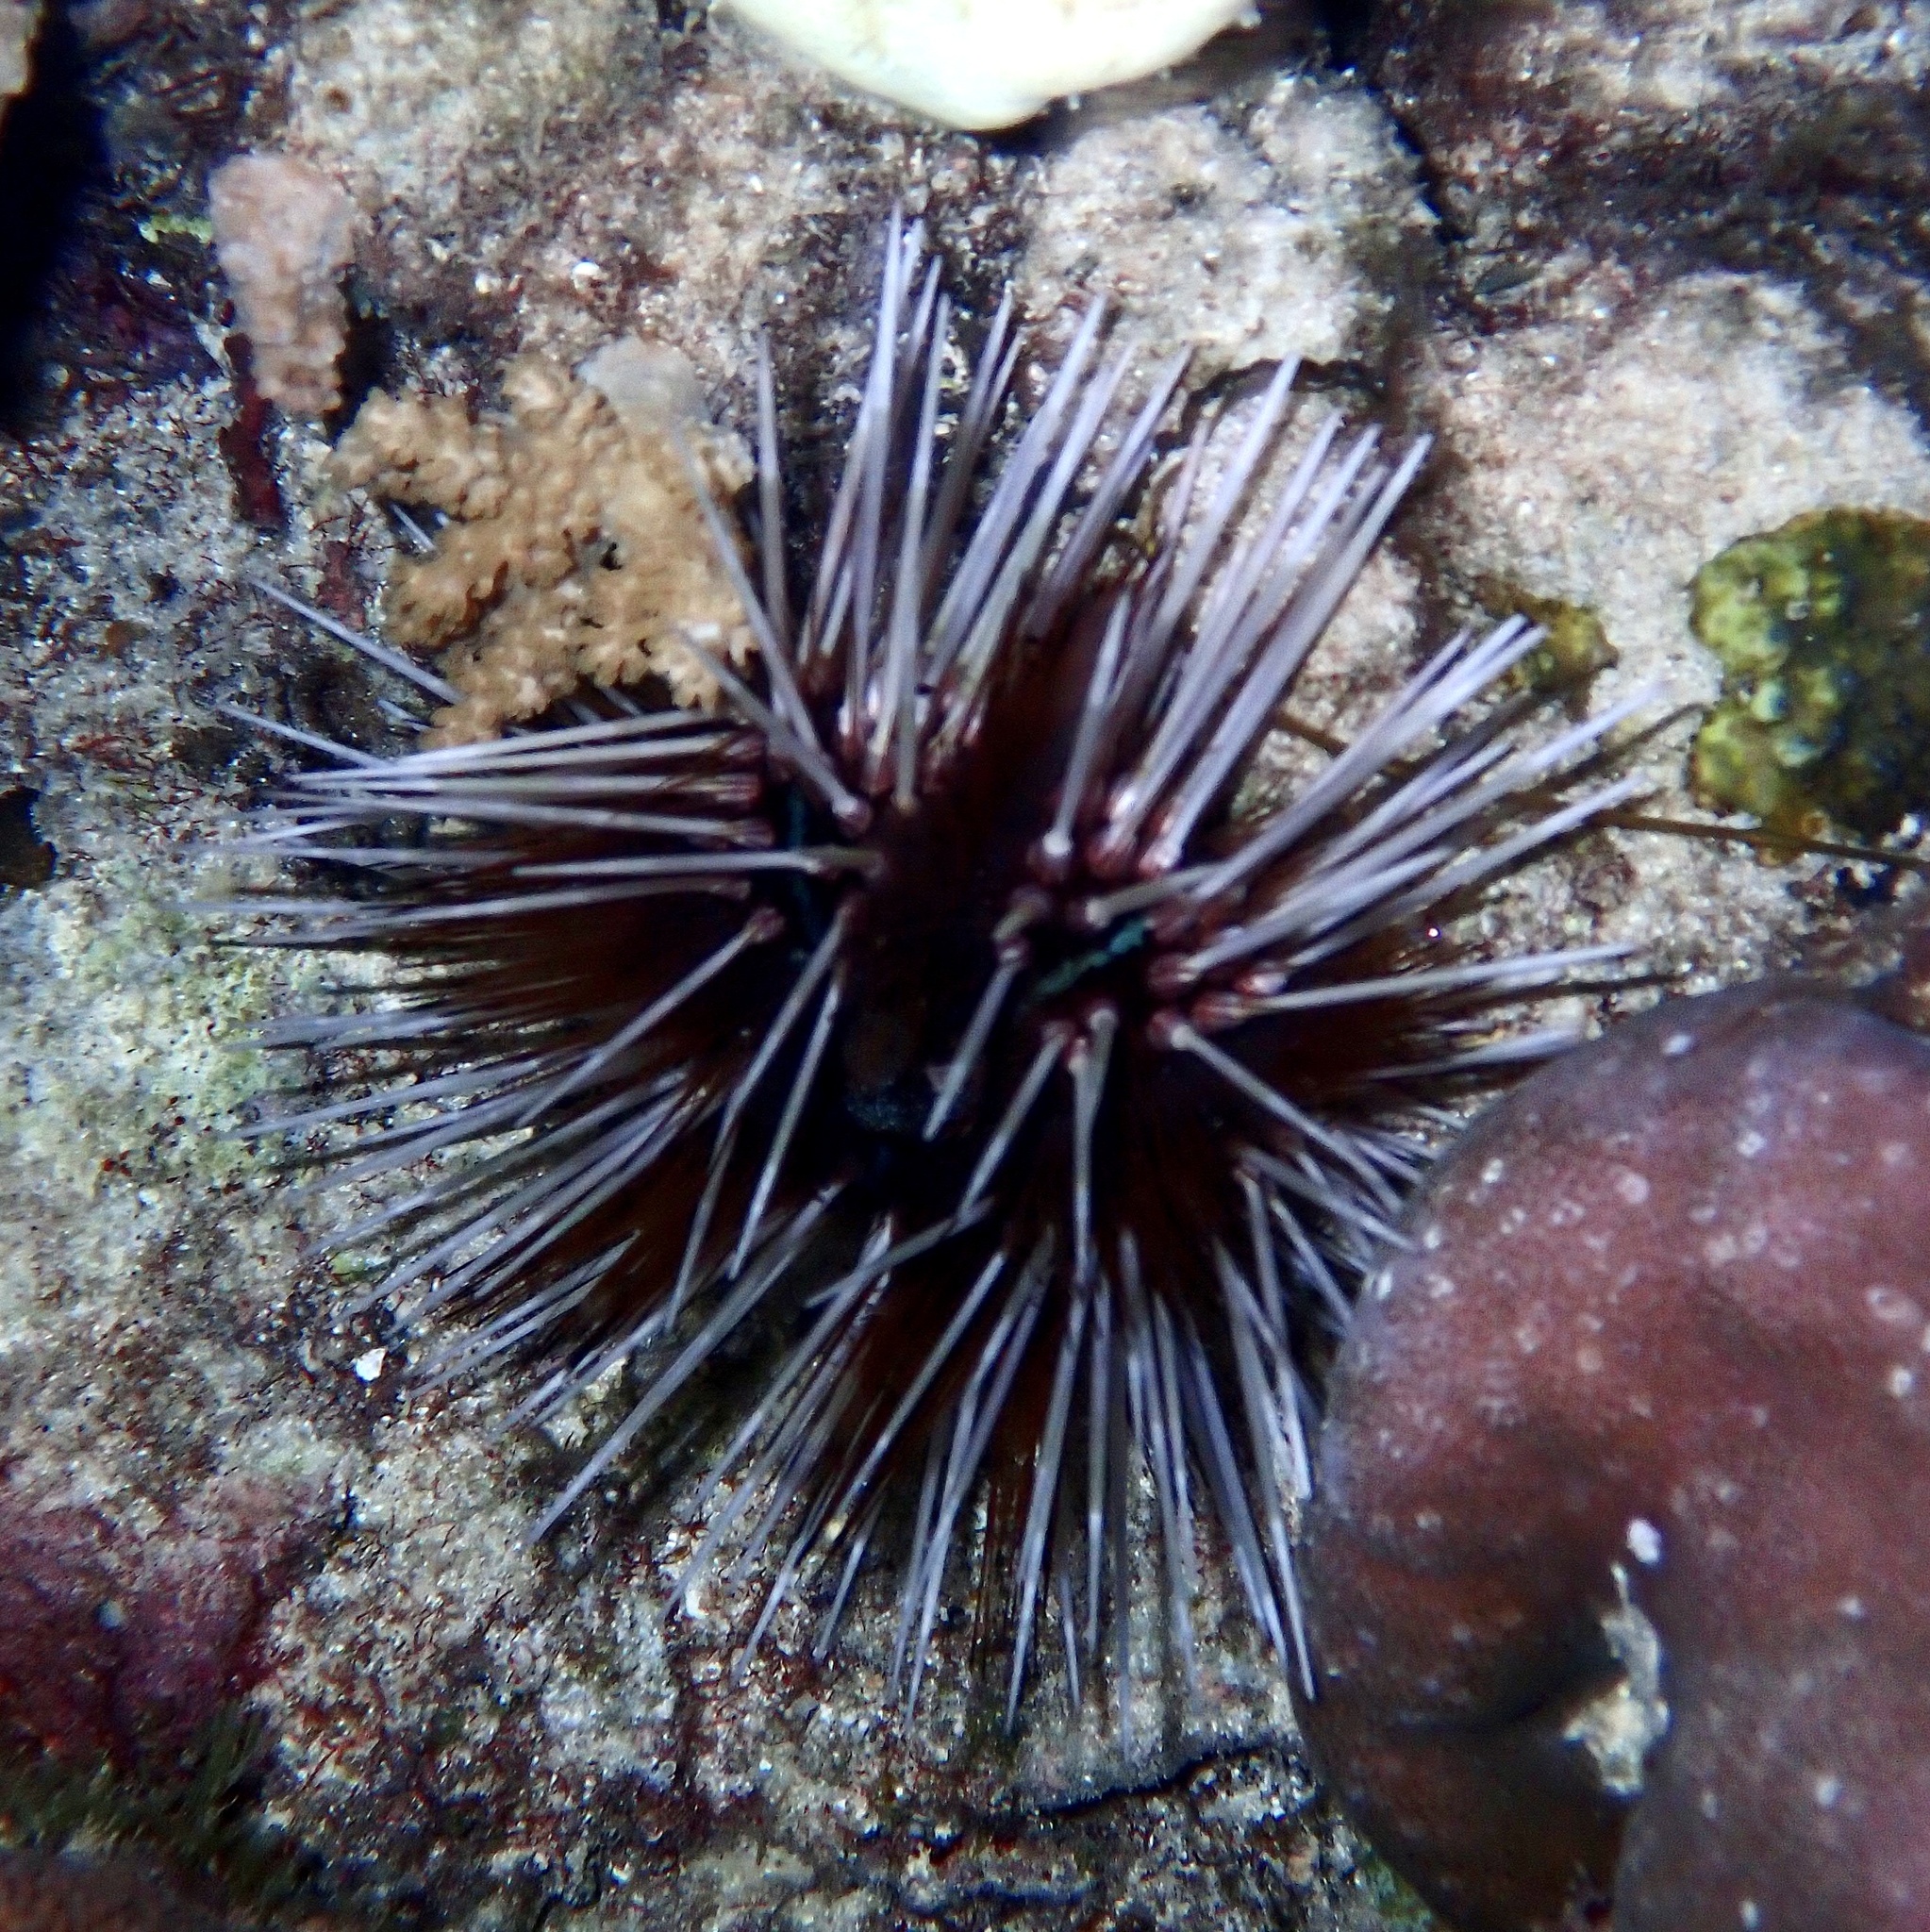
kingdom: Animalia
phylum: Echinodermata
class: Echinoidea
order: Diadematoida
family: Diadematidae
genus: Echinothrix
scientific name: Echinothrix calamaris
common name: Banded sea urchin
